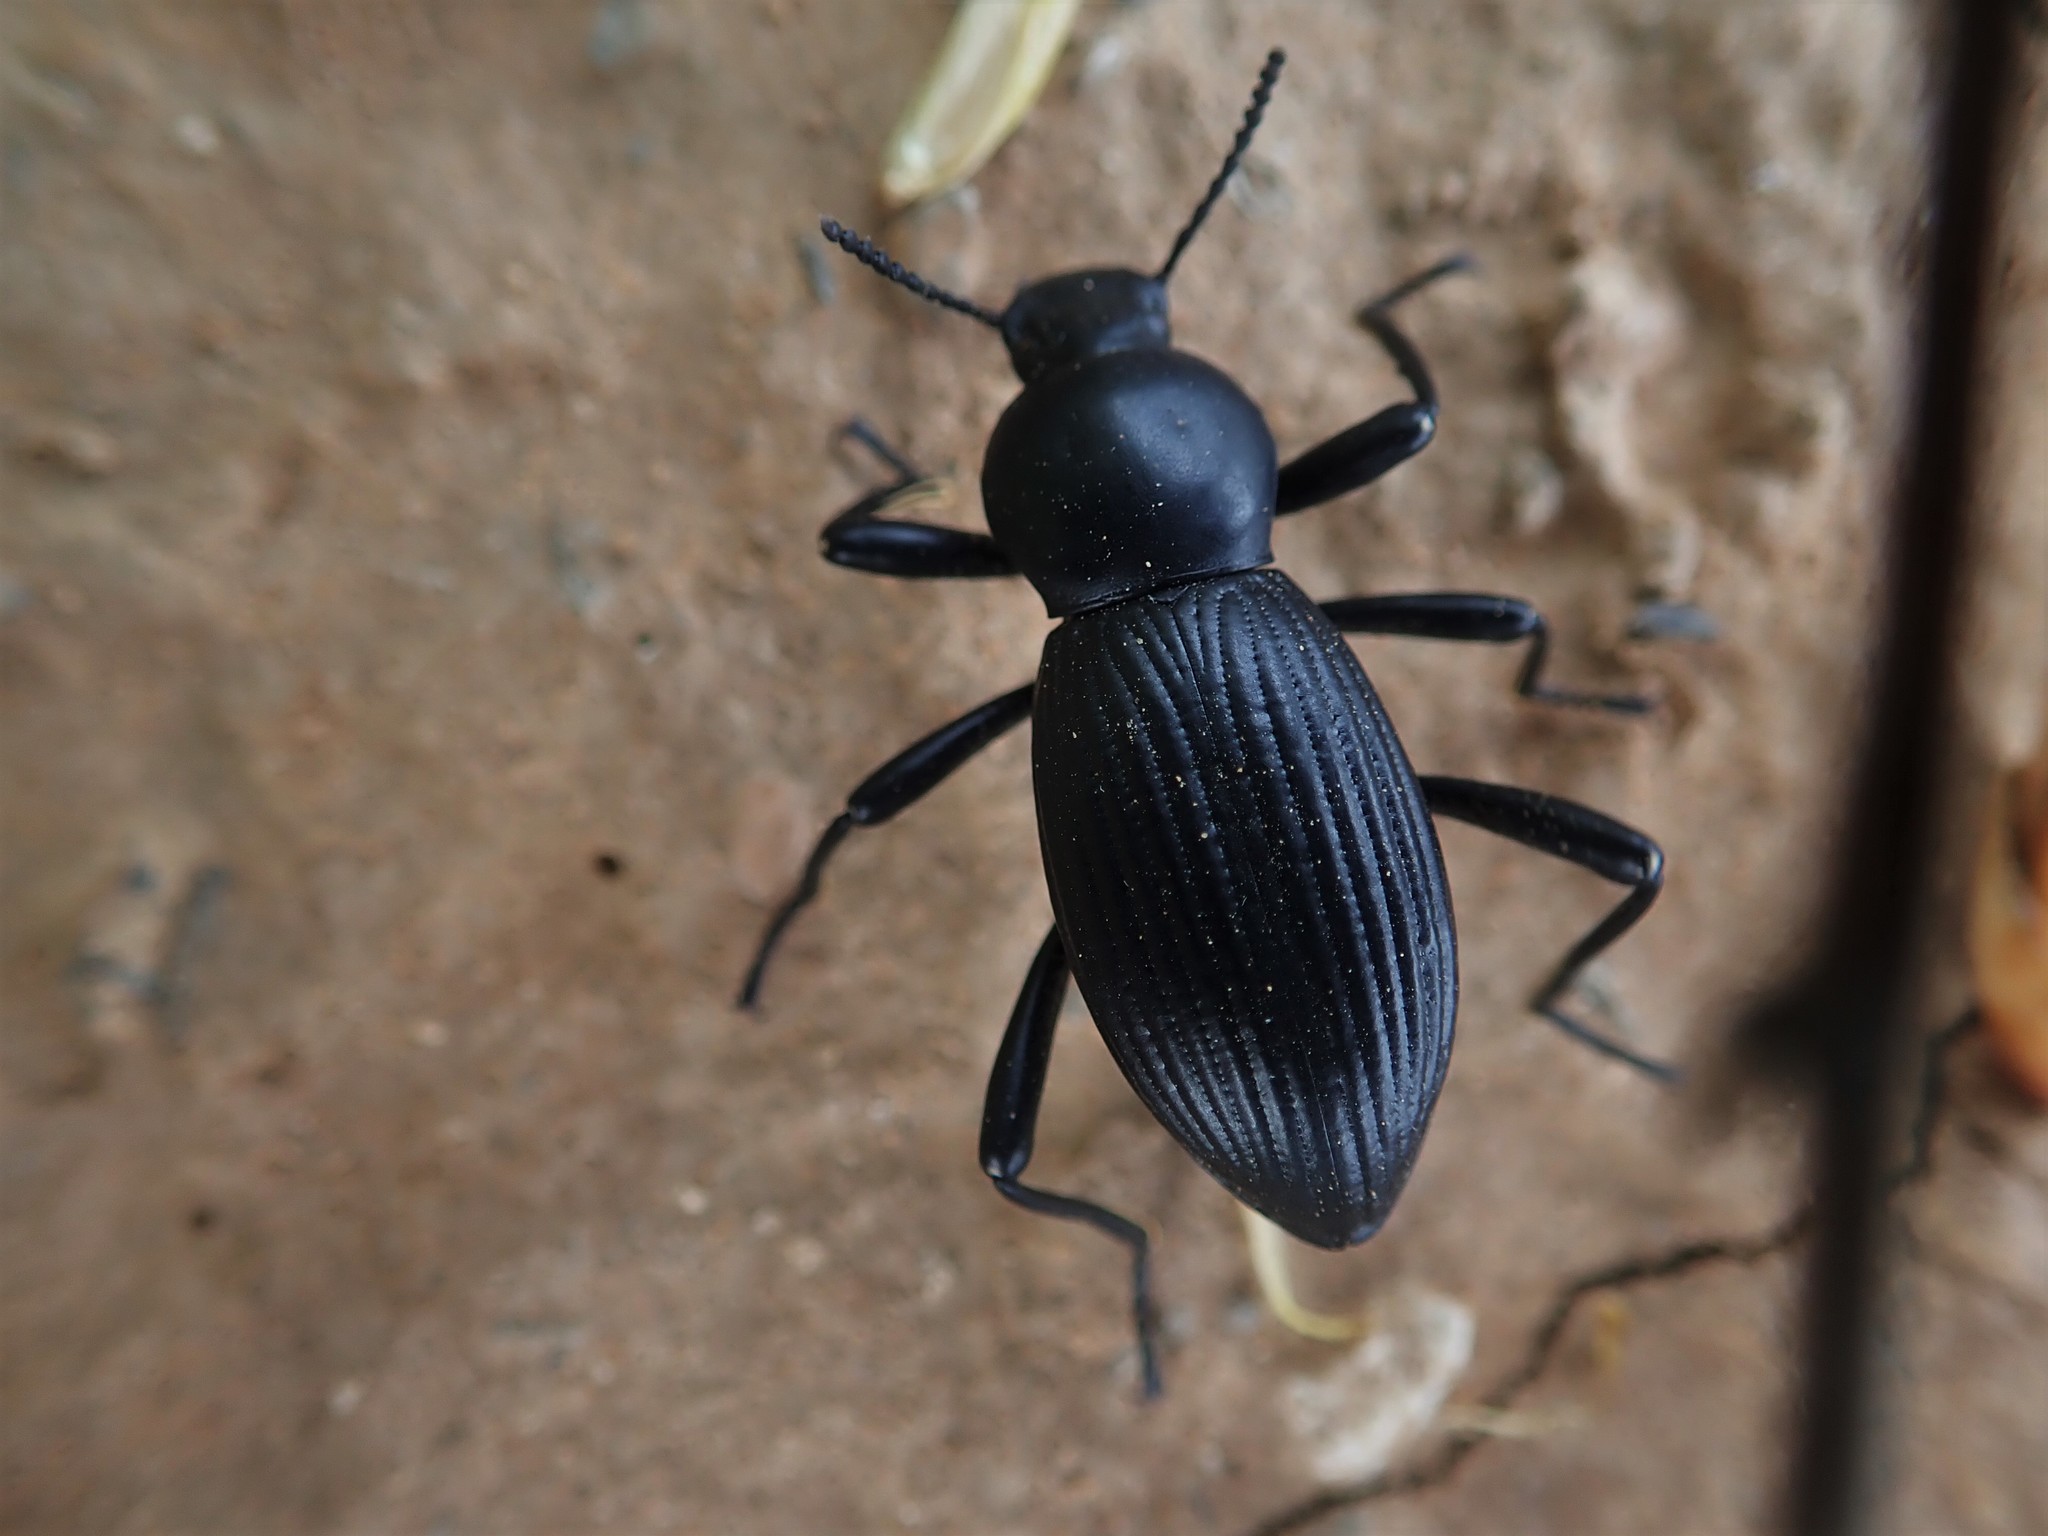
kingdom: Animalia
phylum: Arthropoda
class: Insecta
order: Coleoptera
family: Tenebrionidae
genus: Coelocnemis
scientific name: Coelocnemis sulcata
